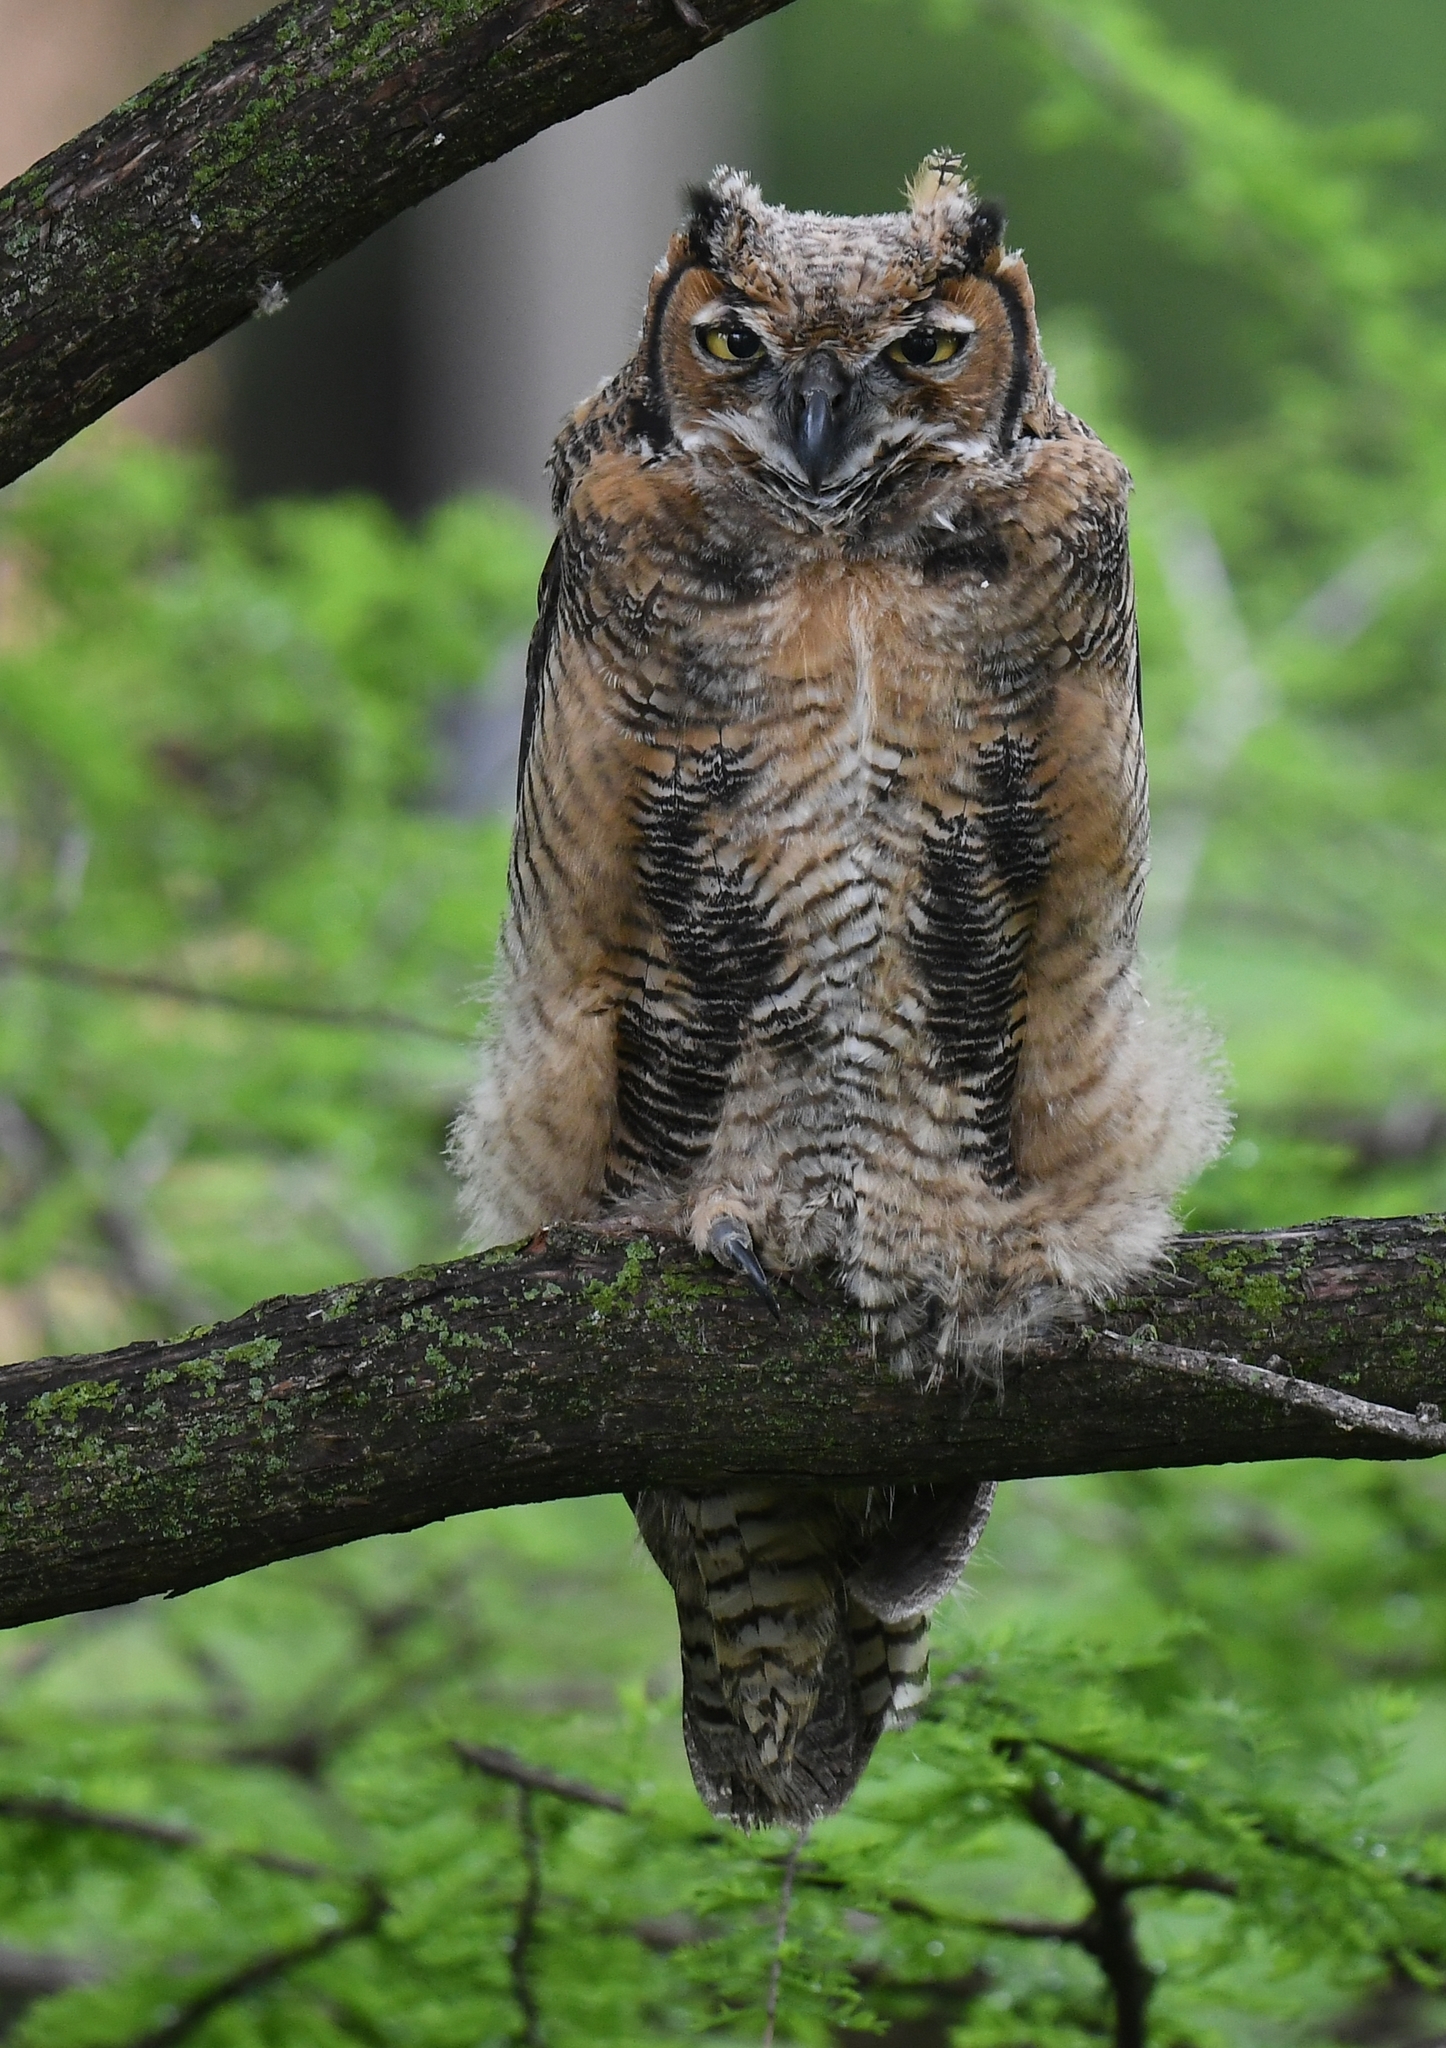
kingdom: Animalia
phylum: Chordata
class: Aves
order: Strigiformes
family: Strigidae
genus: Bubo
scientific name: Bubo virginianus
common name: Great horned owl
